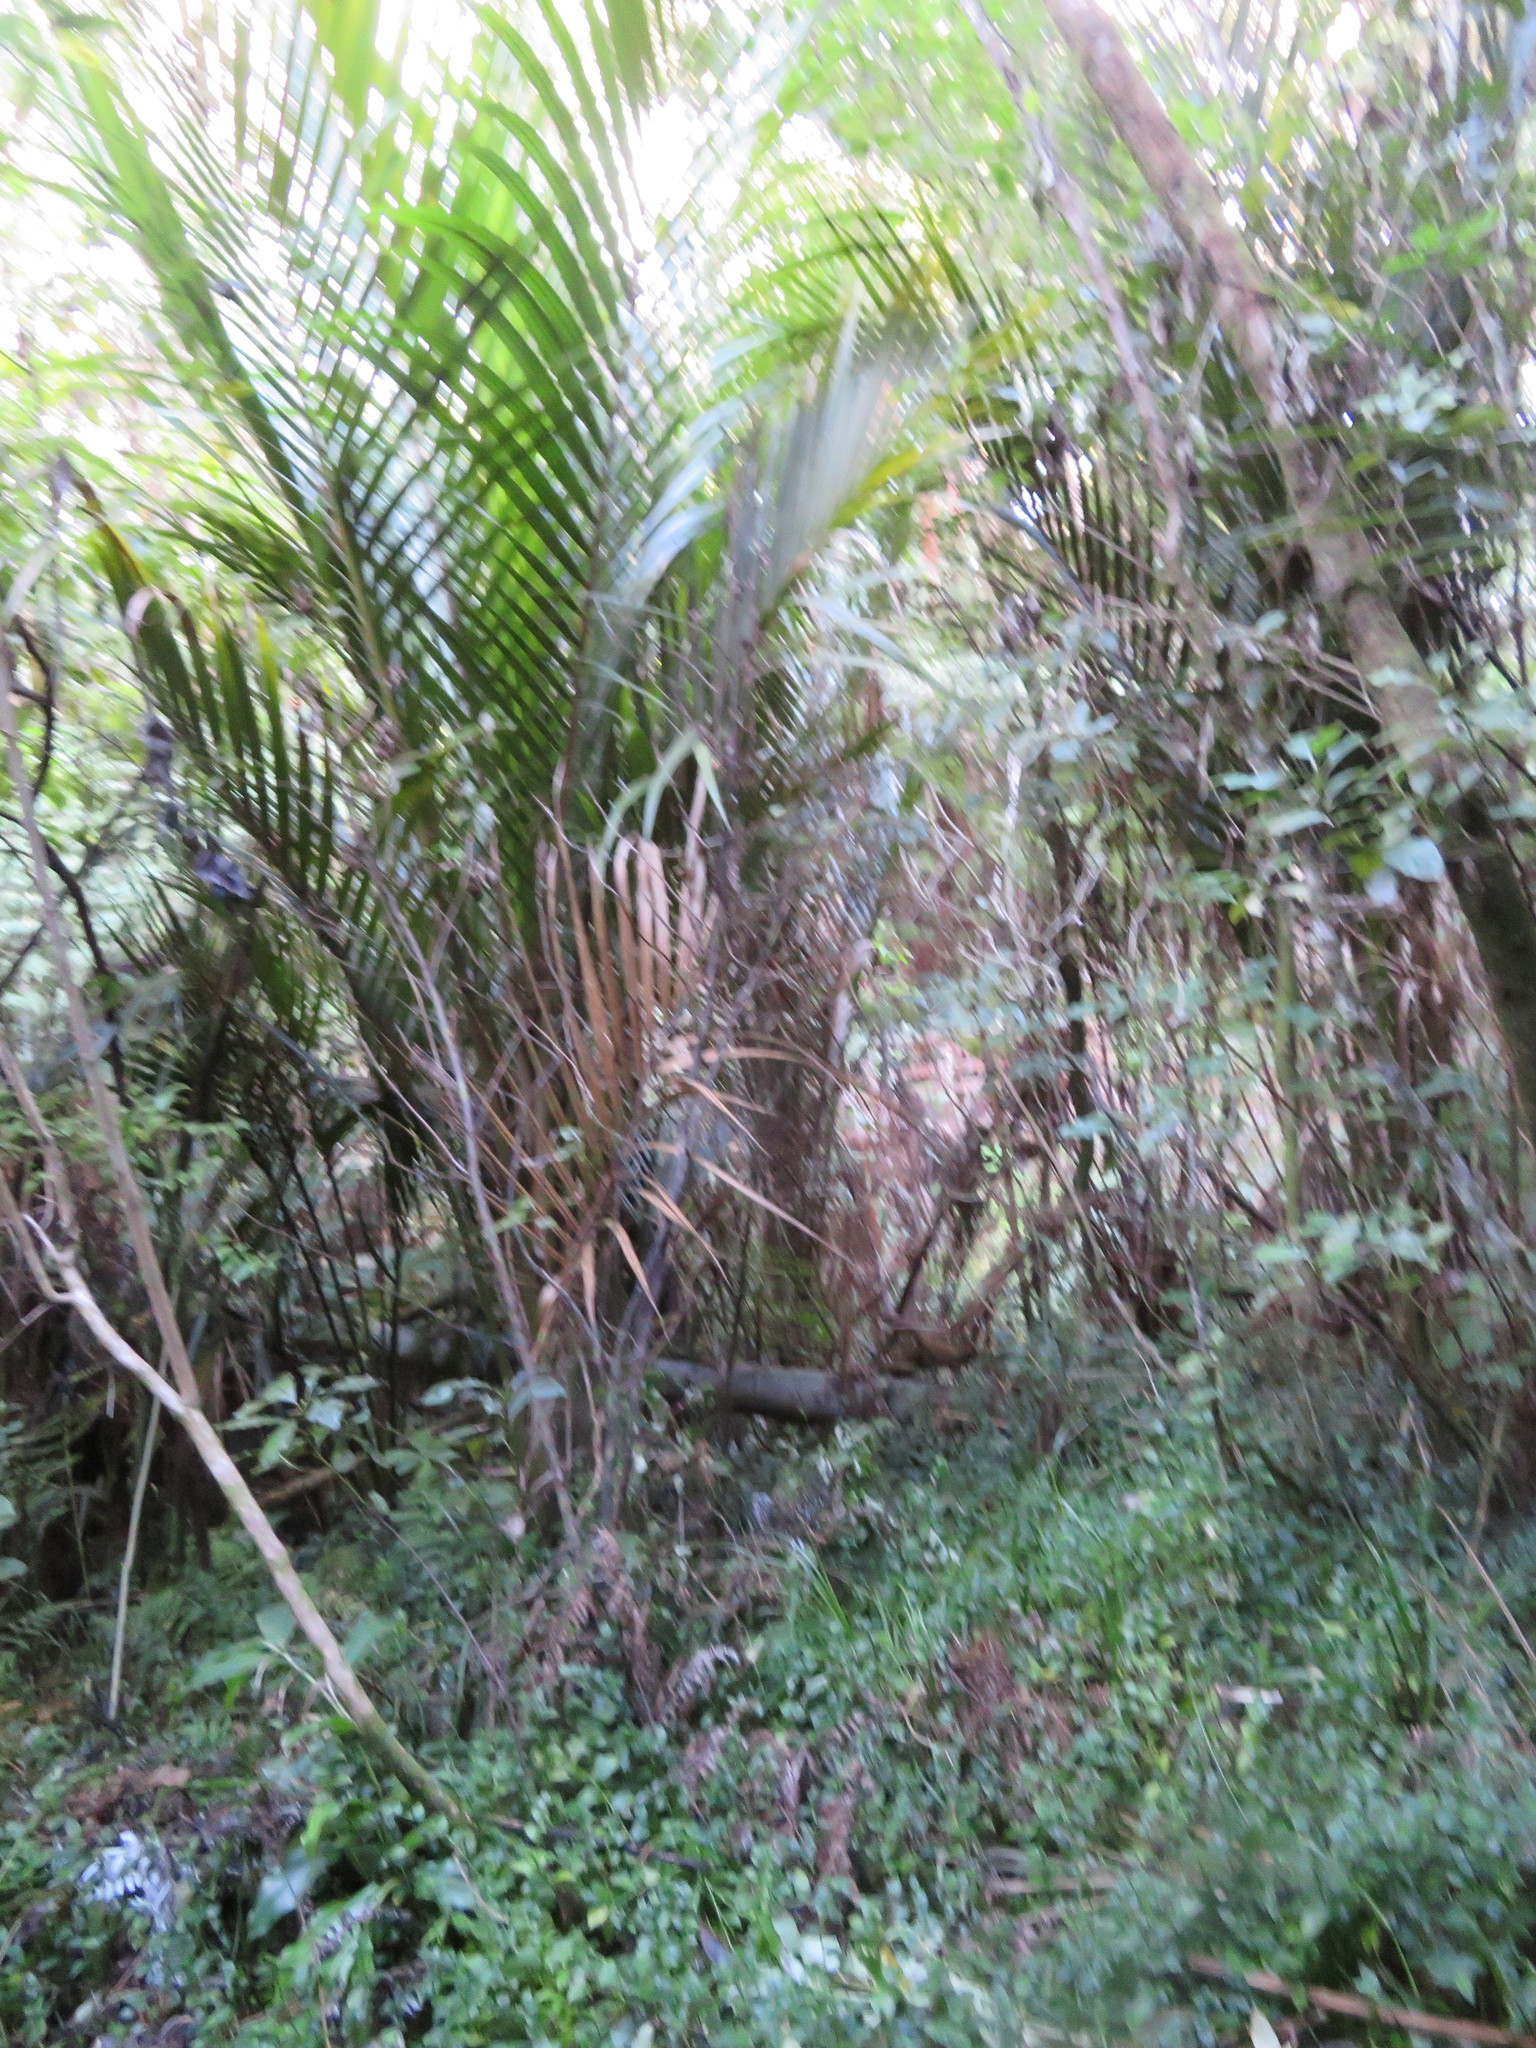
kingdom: Plantae
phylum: Tracheophyta
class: Liliopsida
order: Arecales
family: Arecaceae
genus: Rhopalostylis
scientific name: Rhopalostylis sapida
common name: Feather-duster palm
